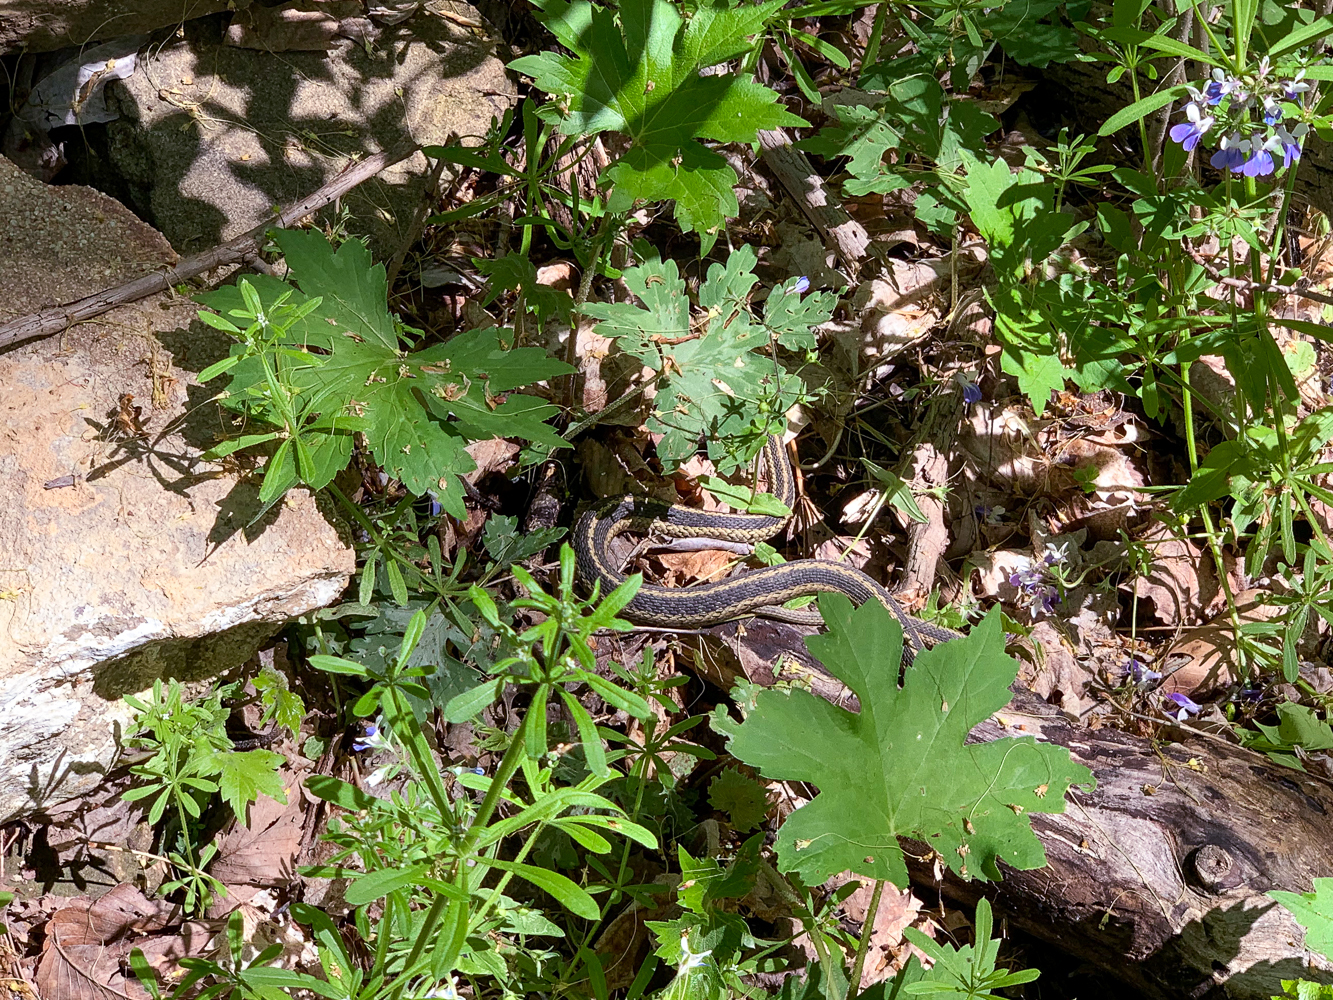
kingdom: Animalia
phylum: Chordata
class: Squamata
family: Colubridae
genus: Thamnophis
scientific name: Thamnophis sirtalis
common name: Common garter snake
